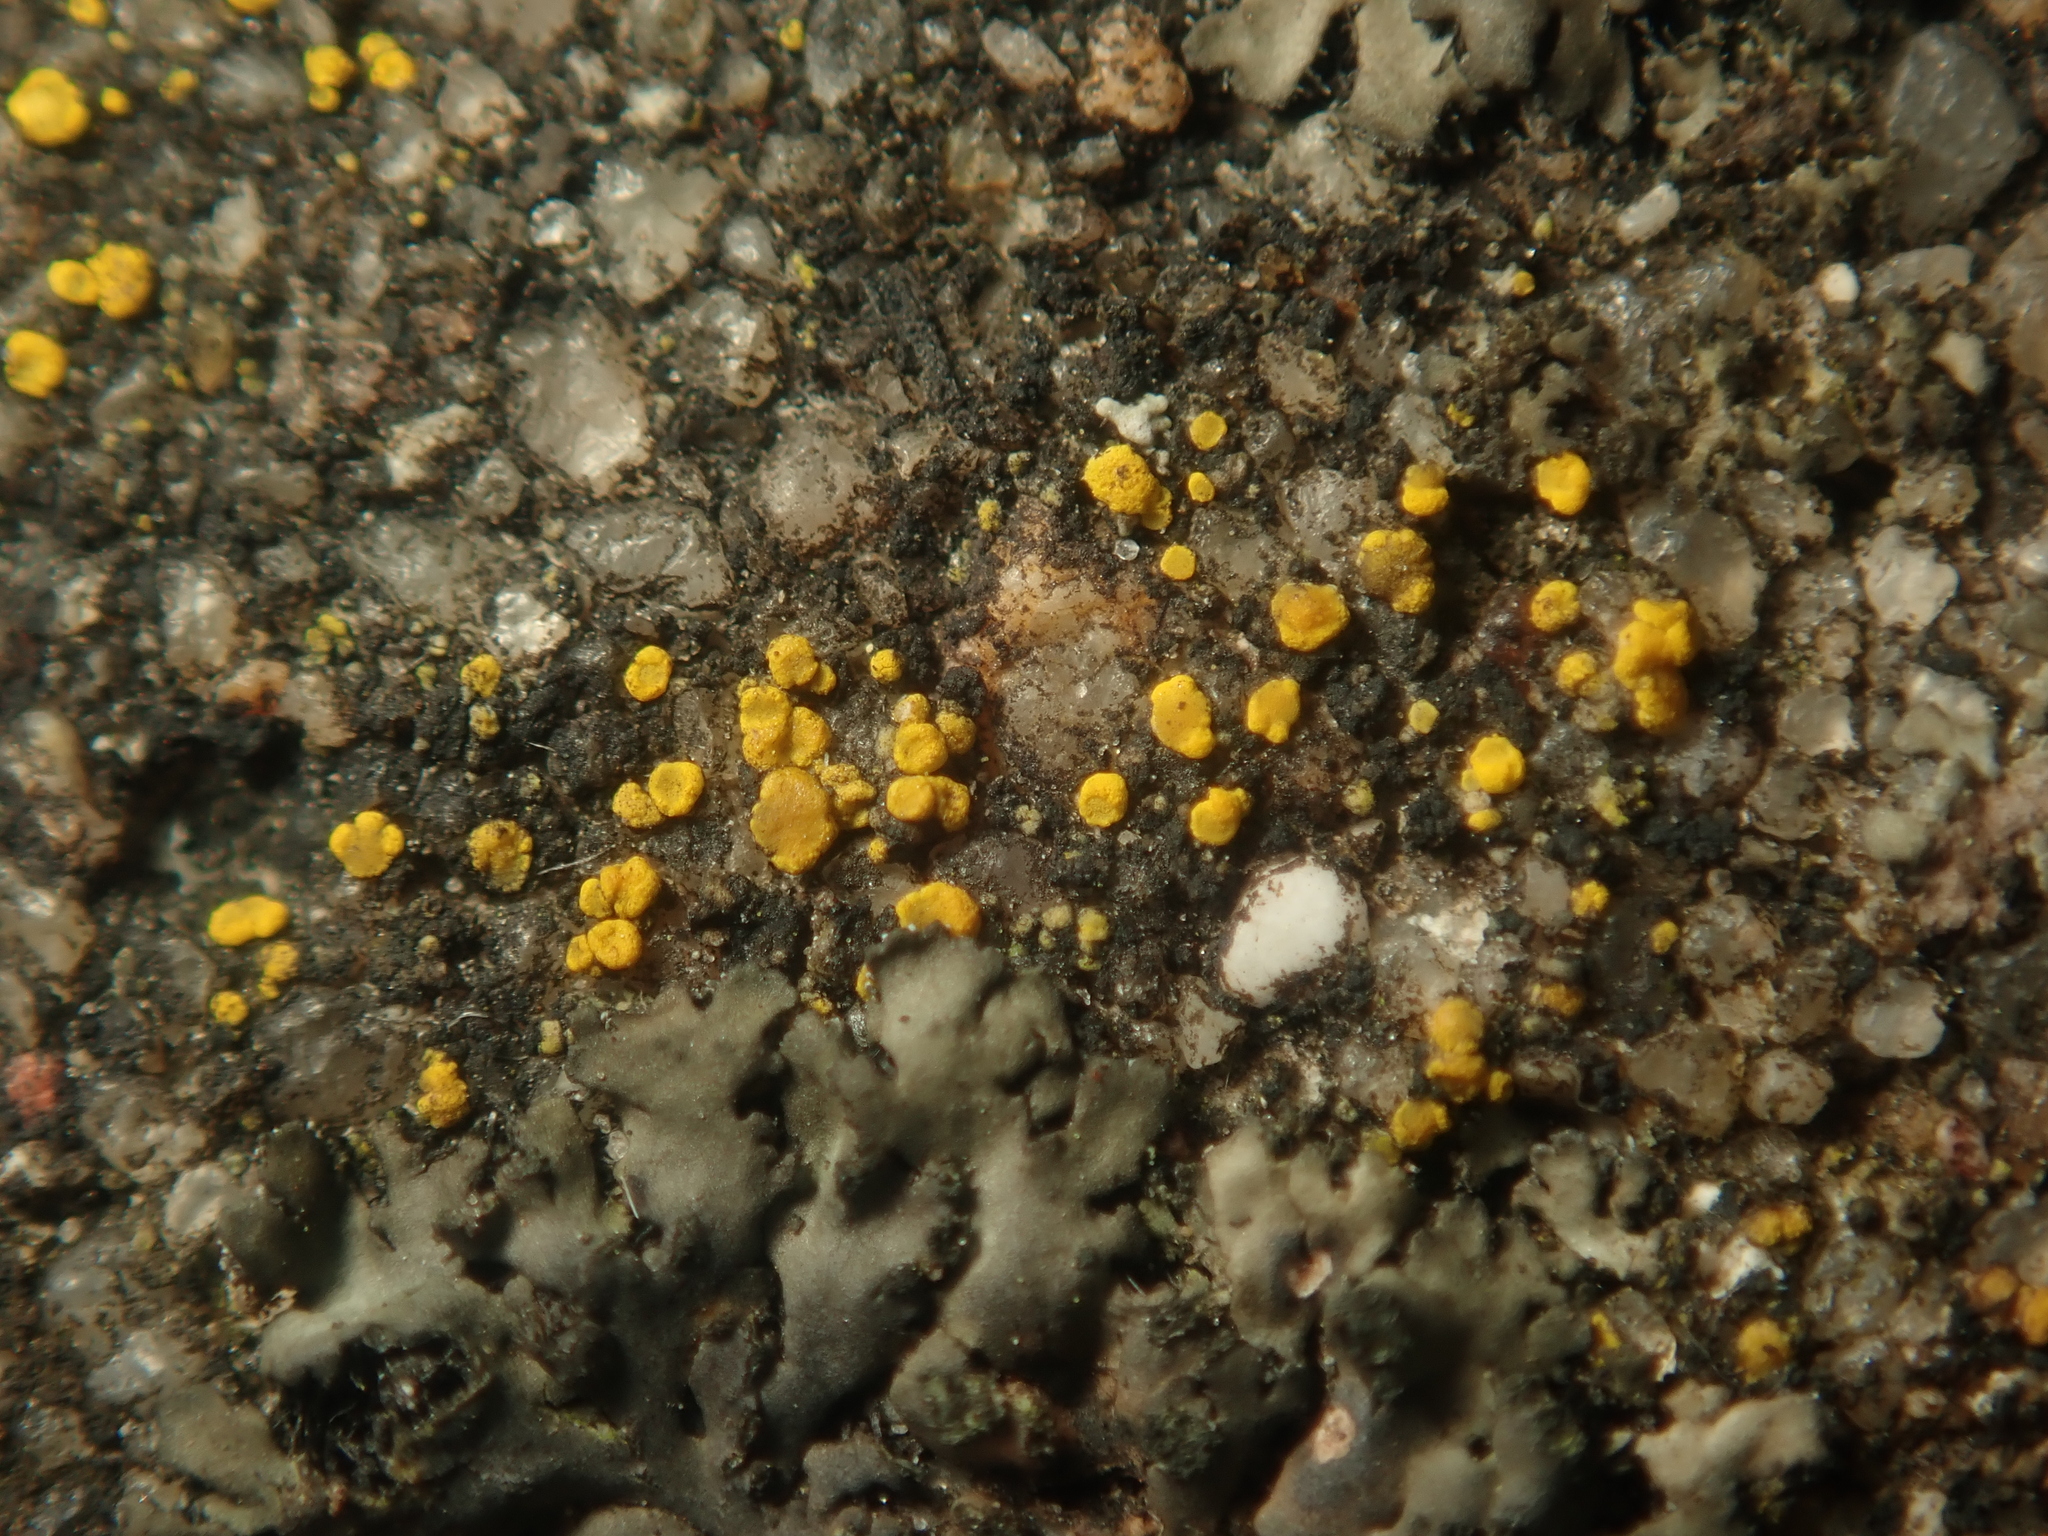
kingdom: Fungi
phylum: Ascomycota
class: Candelariomycetes
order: Candelariales
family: Candelariaceae
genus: Candelariella
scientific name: Candelariella aurella
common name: Hidden goldspeck lichen
